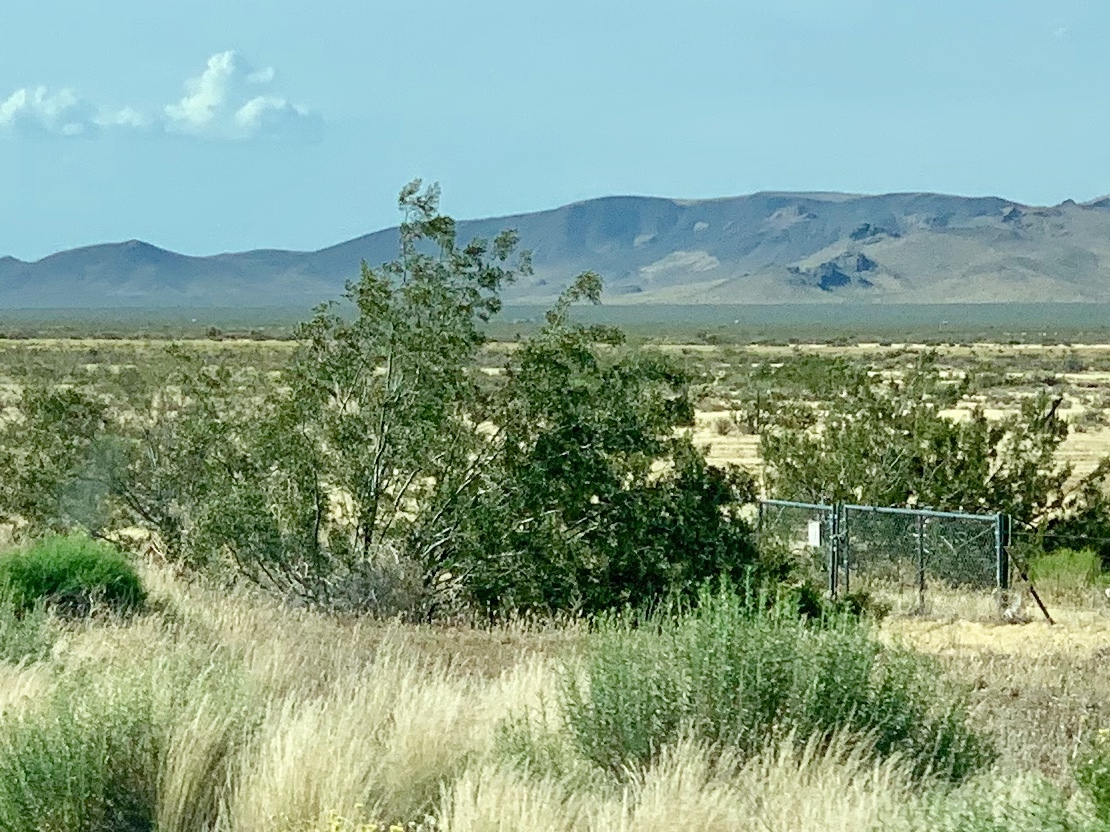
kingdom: Plantae
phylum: Tracheophyta
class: Magnoliopsida
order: Zygophyllales
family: Zygophyllaceae
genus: Larrea
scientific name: Larrea tridentata
